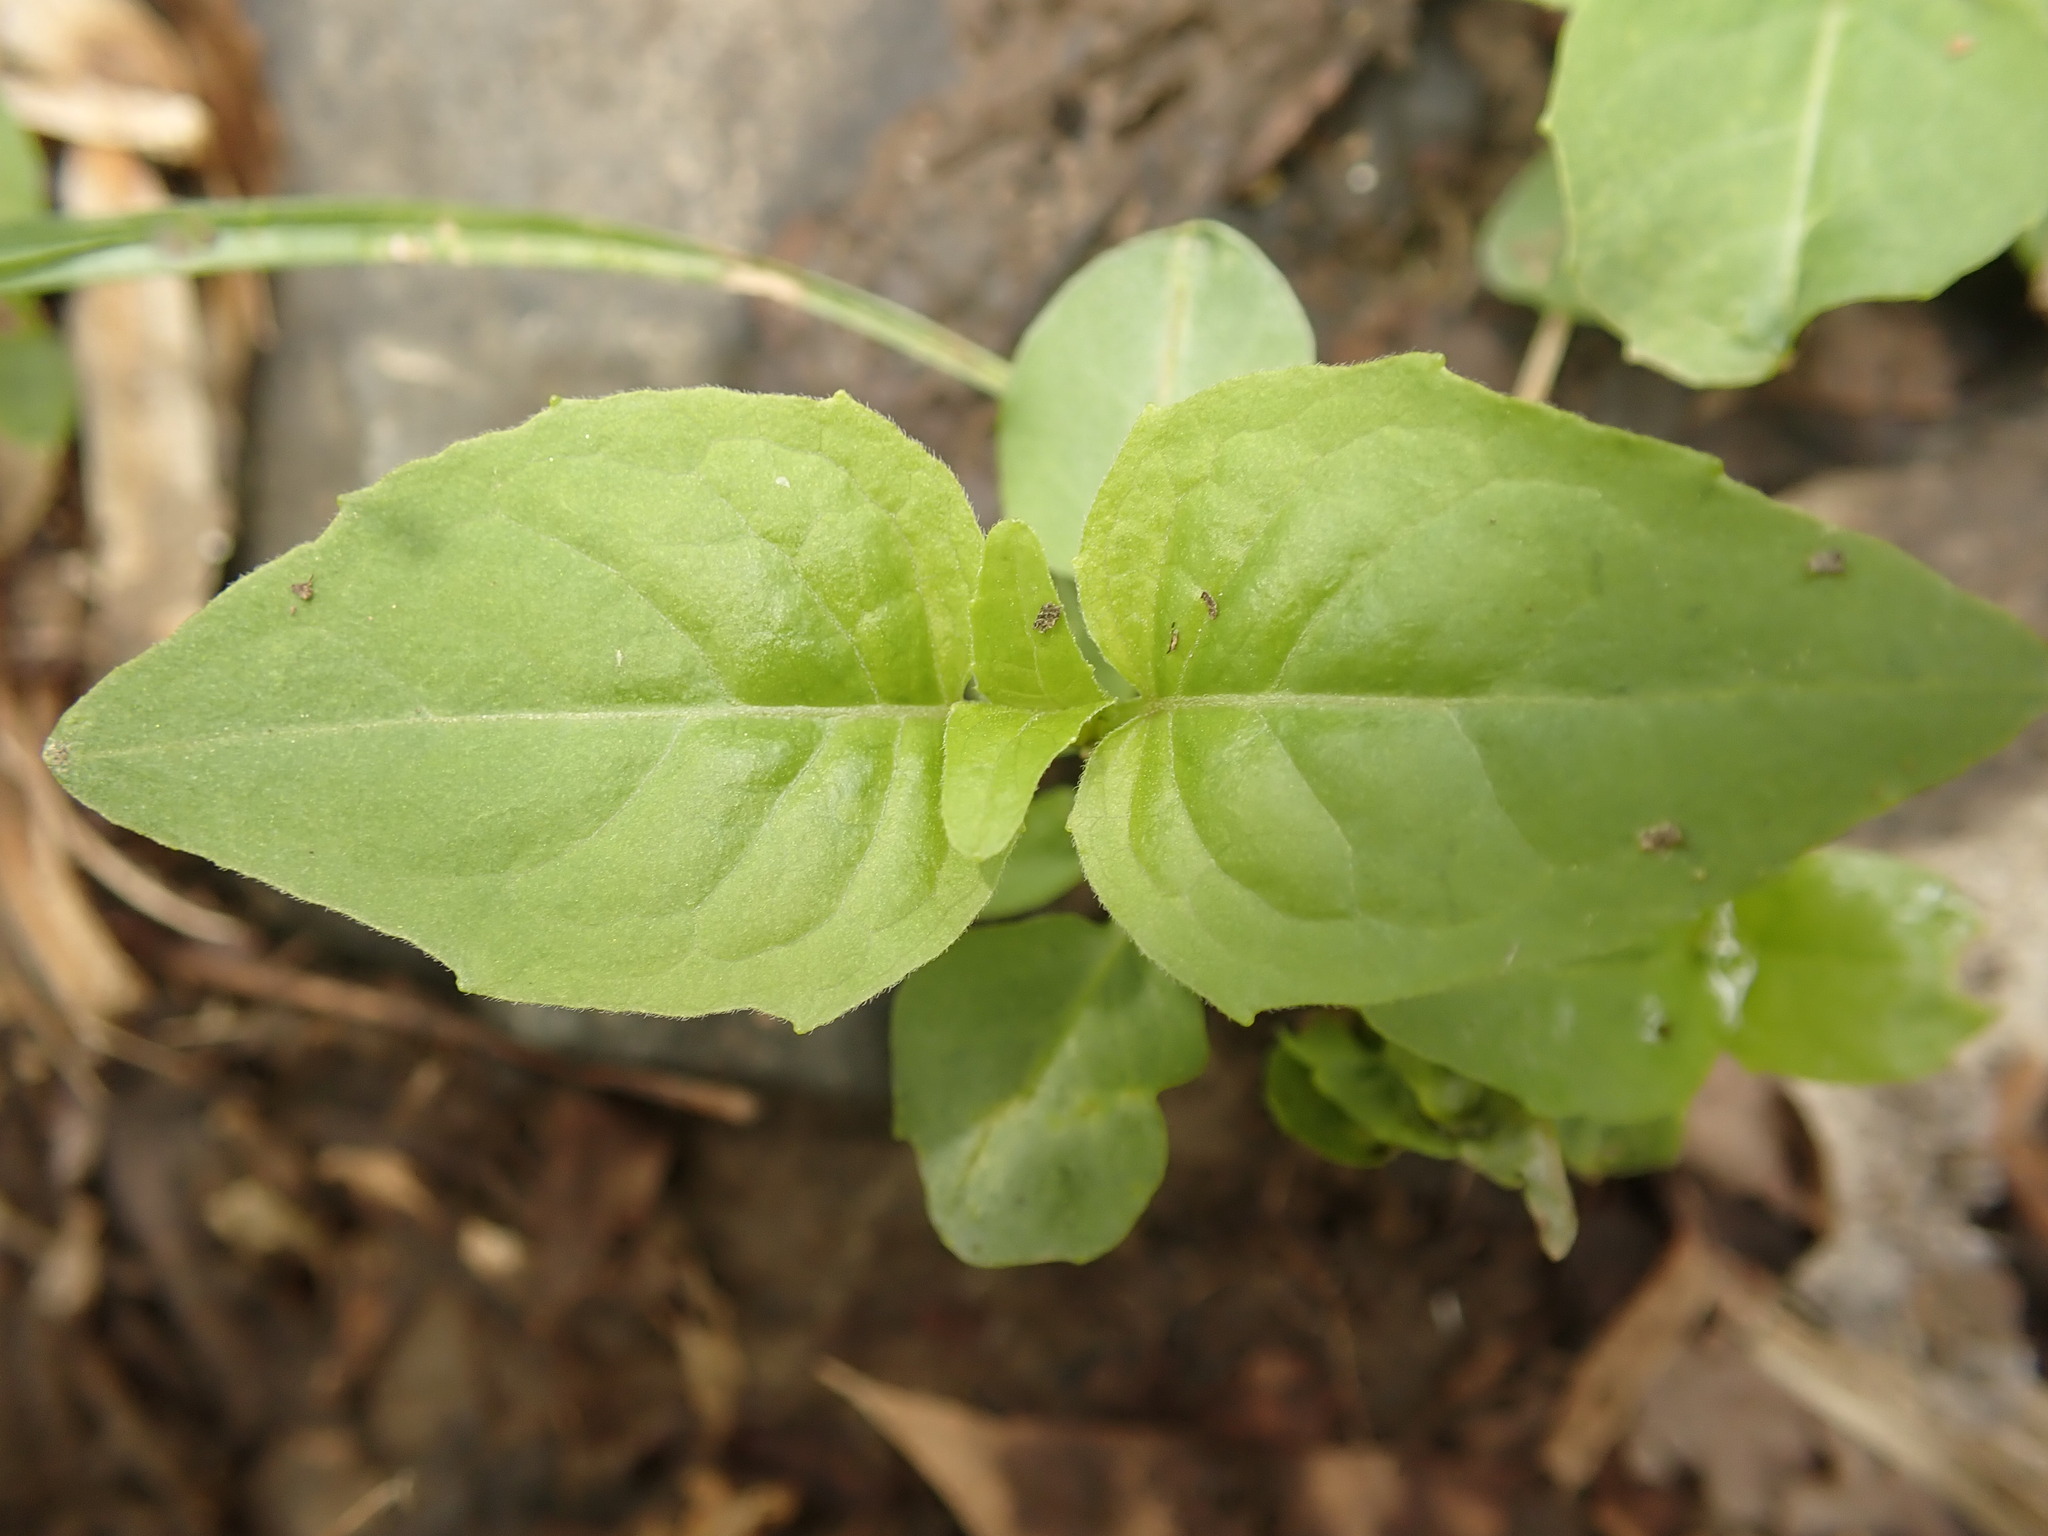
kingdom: Plantae
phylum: Tracheophyta
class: Magnoliopsida
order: Myrtales
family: Onagraceae
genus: Circaea
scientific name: Circaea canadensis
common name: Broad-leaved enchanter's nightshade
